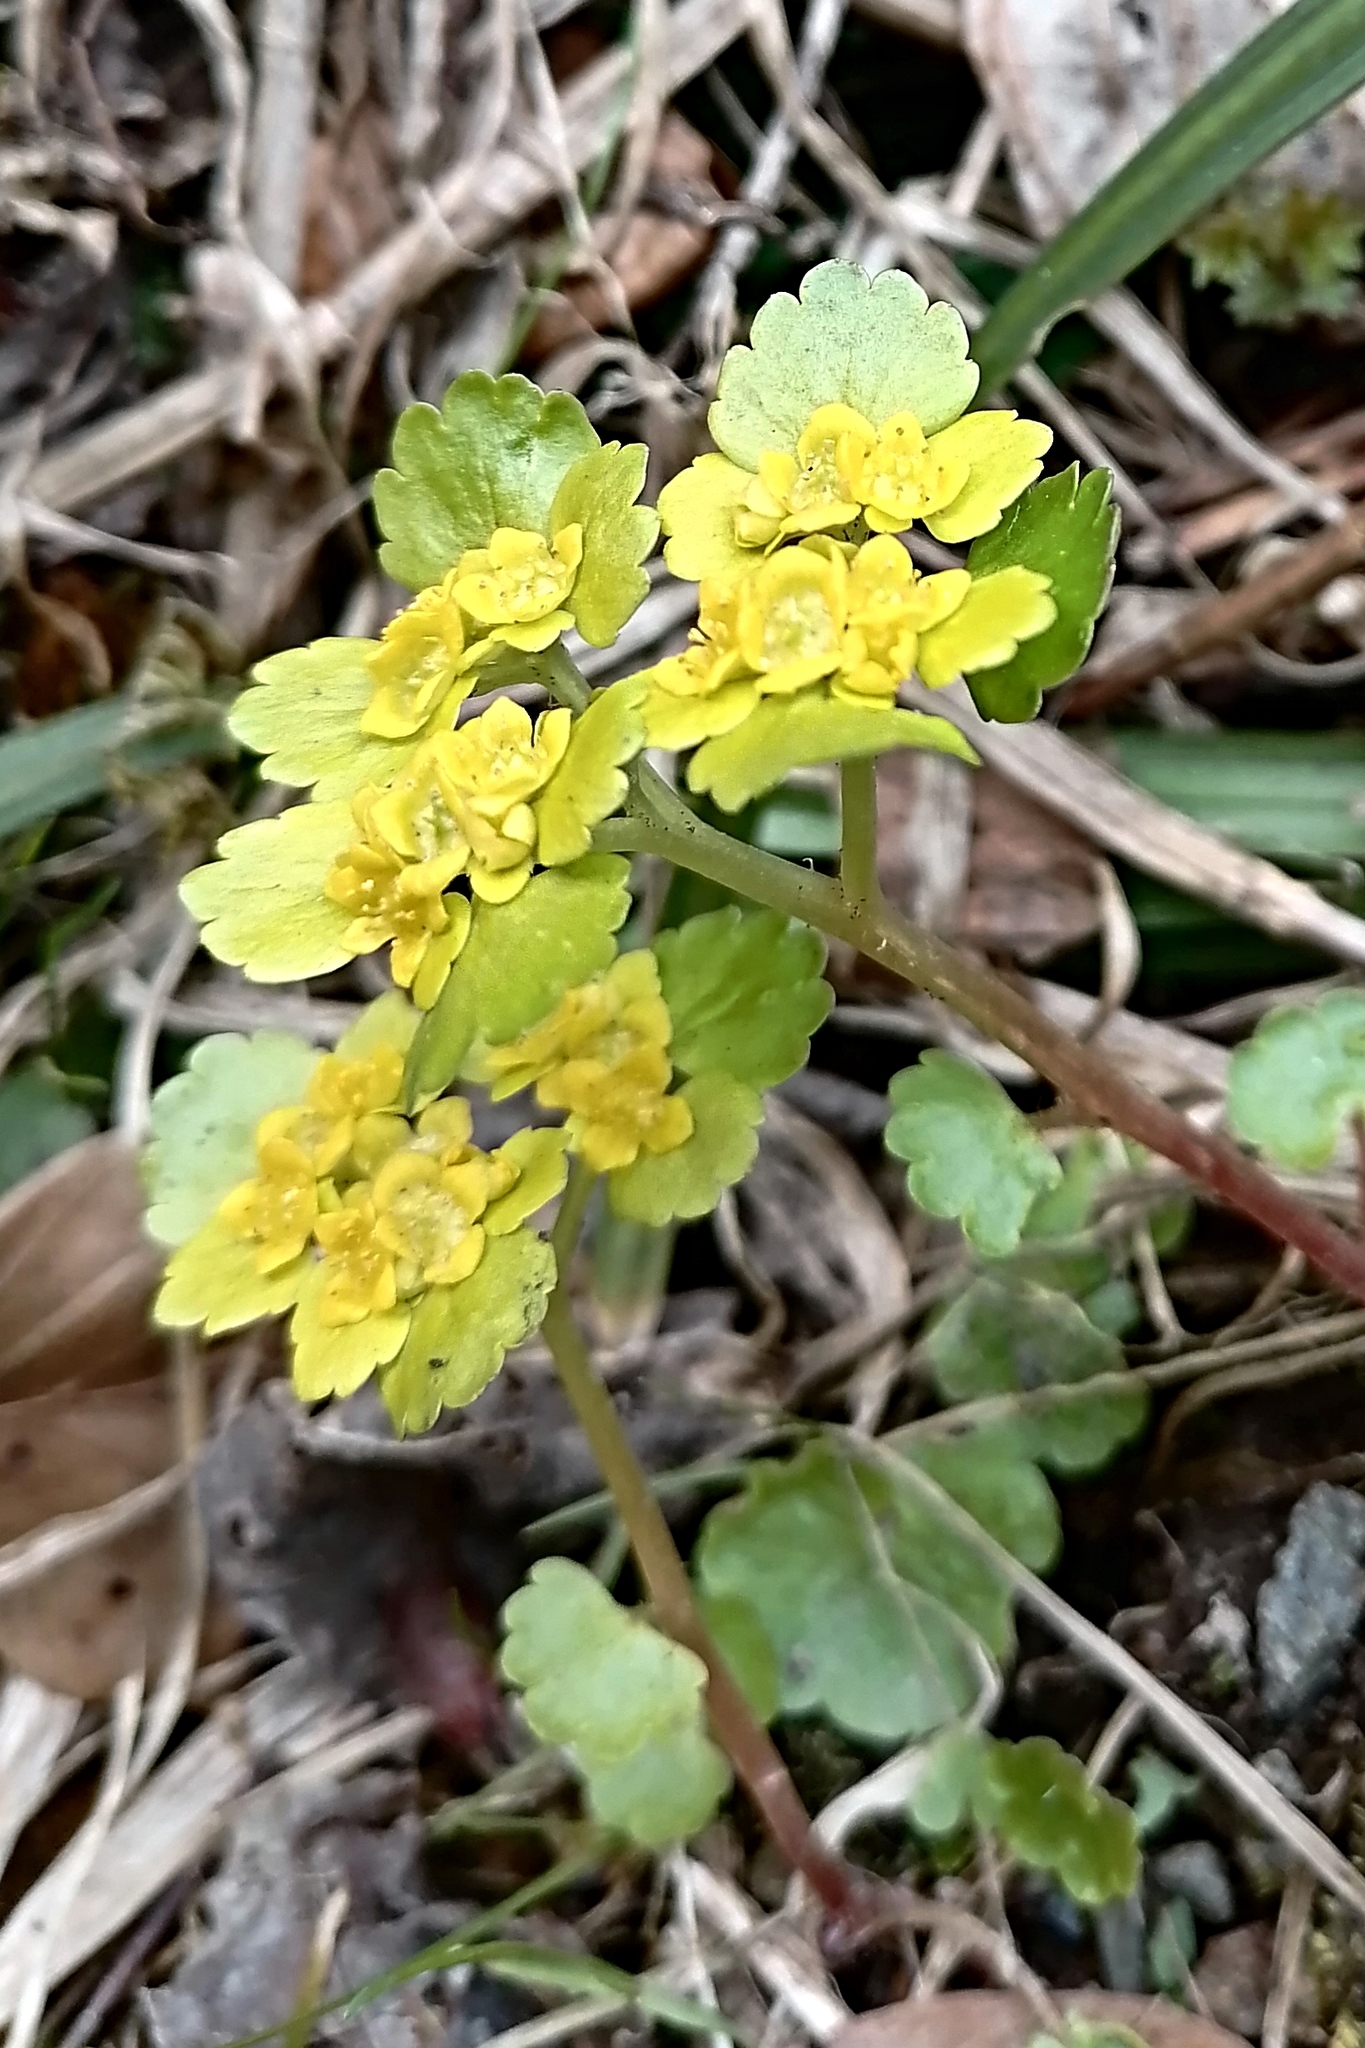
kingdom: Plantae
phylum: Tracheophyta
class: Magnoliopsida
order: Saxifragales
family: Saxifragaceae
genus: Chrysosplenium
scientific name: Chrysosplenium alternifolium
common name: Alternate-leaved golden-saxifrage
